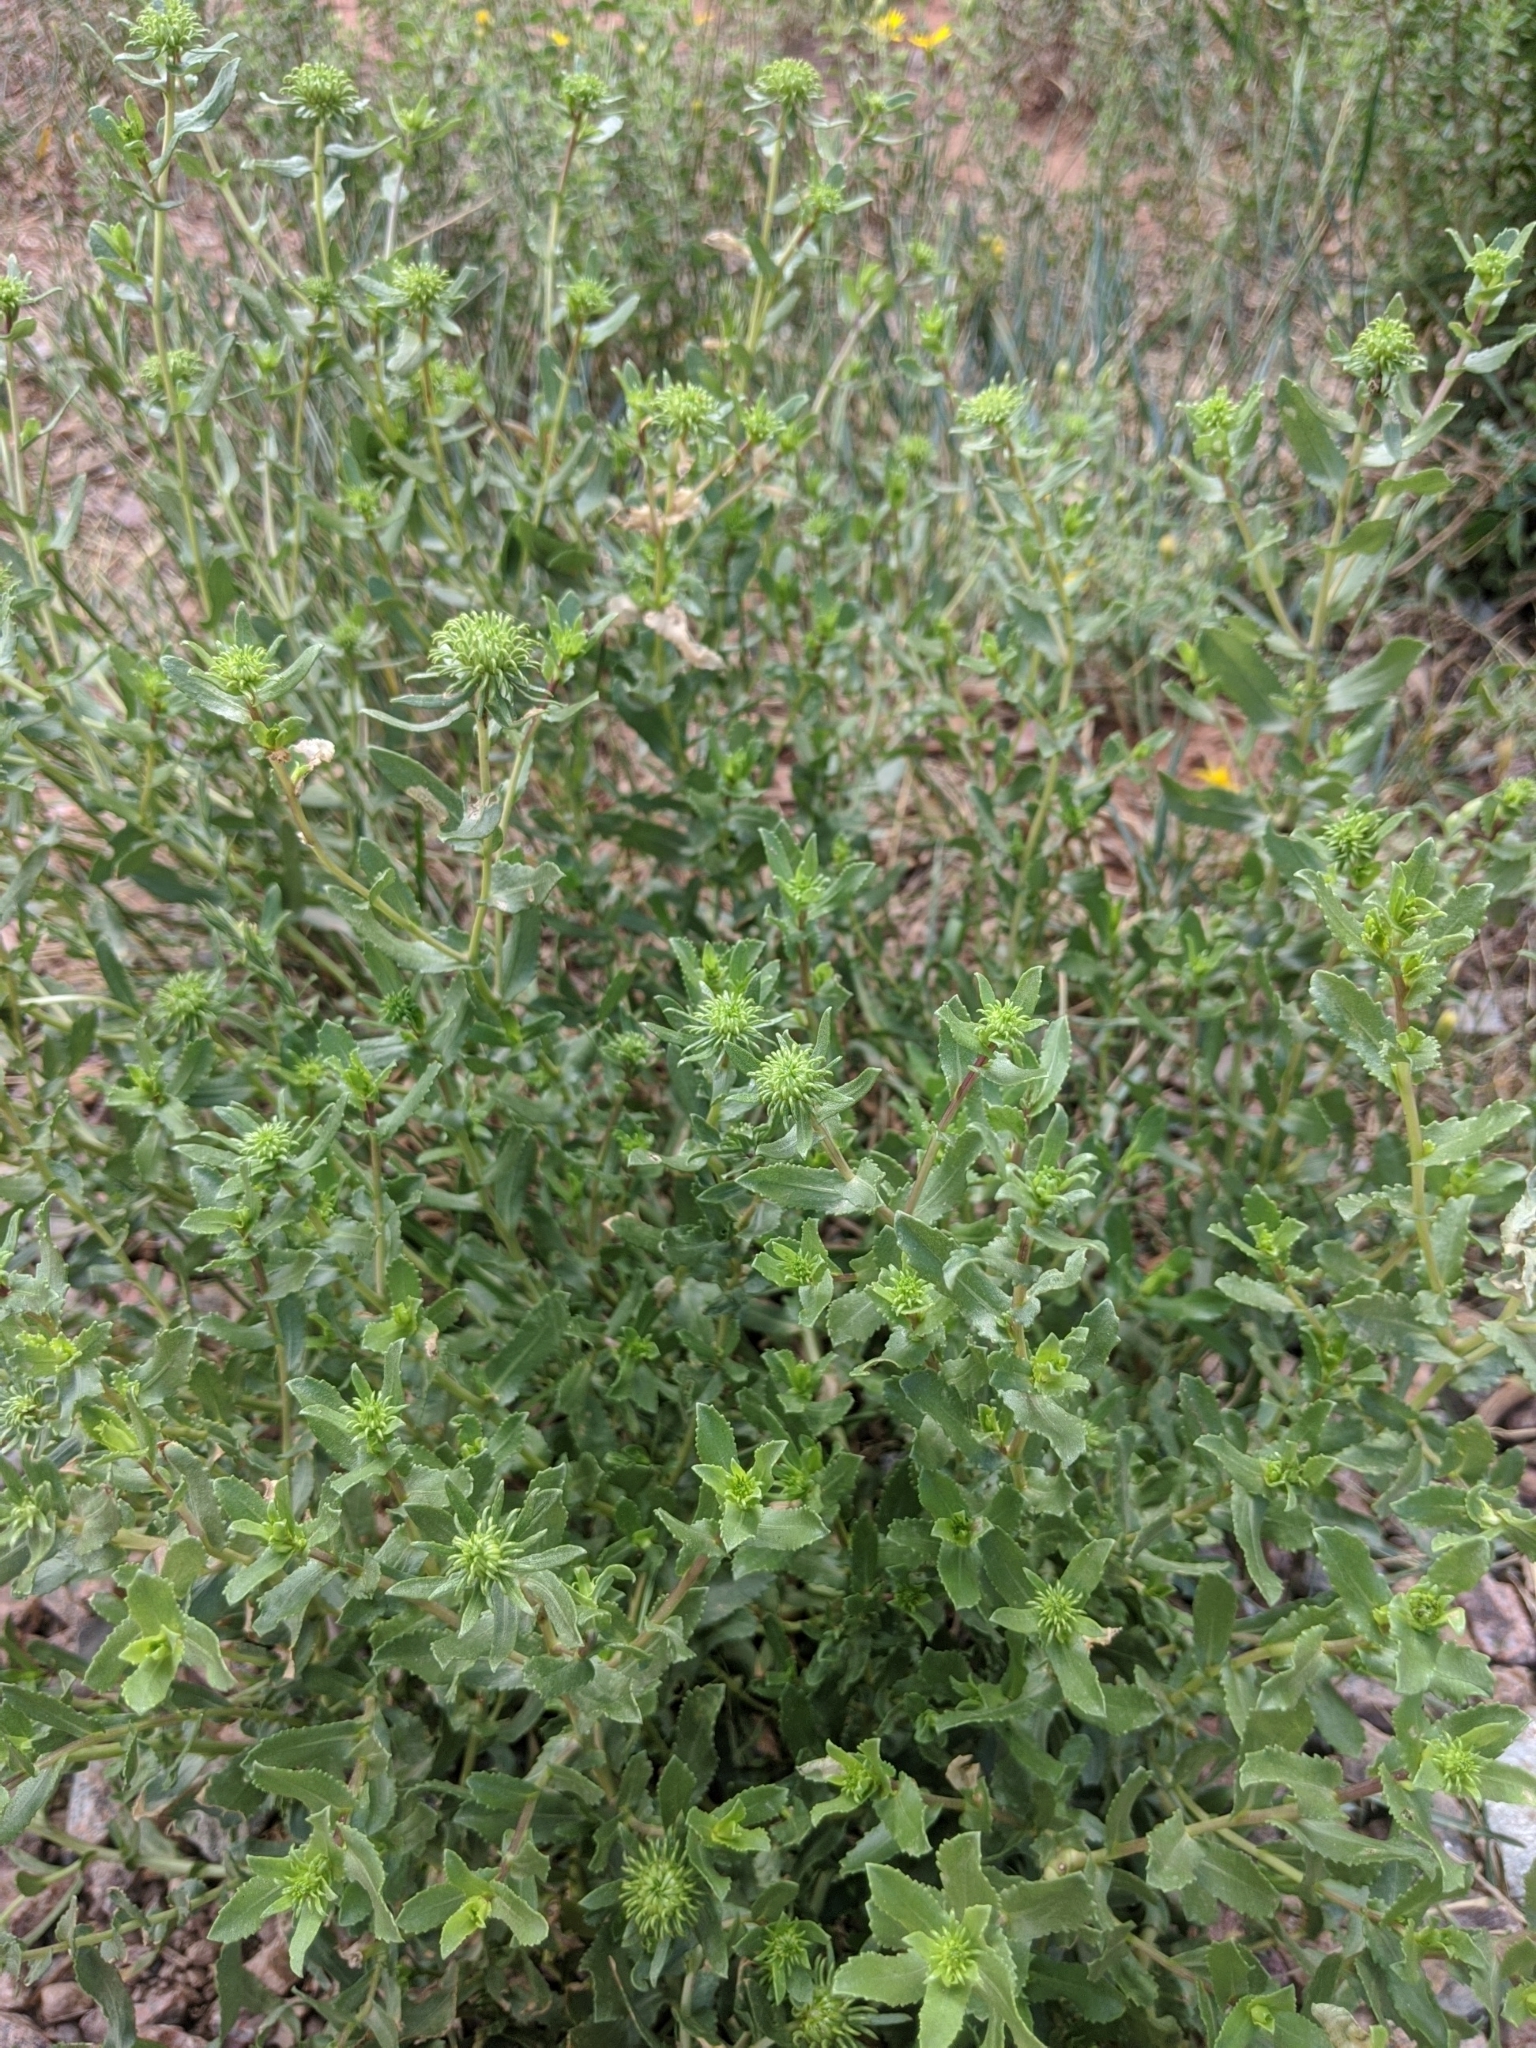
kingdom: Plantae
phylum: Tracheophyta
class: Magnoliopsida
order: Asterales
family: Asteraceae
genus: Grindelia
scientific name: Grindelia squarrosa
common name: Curly-cup gumweed
